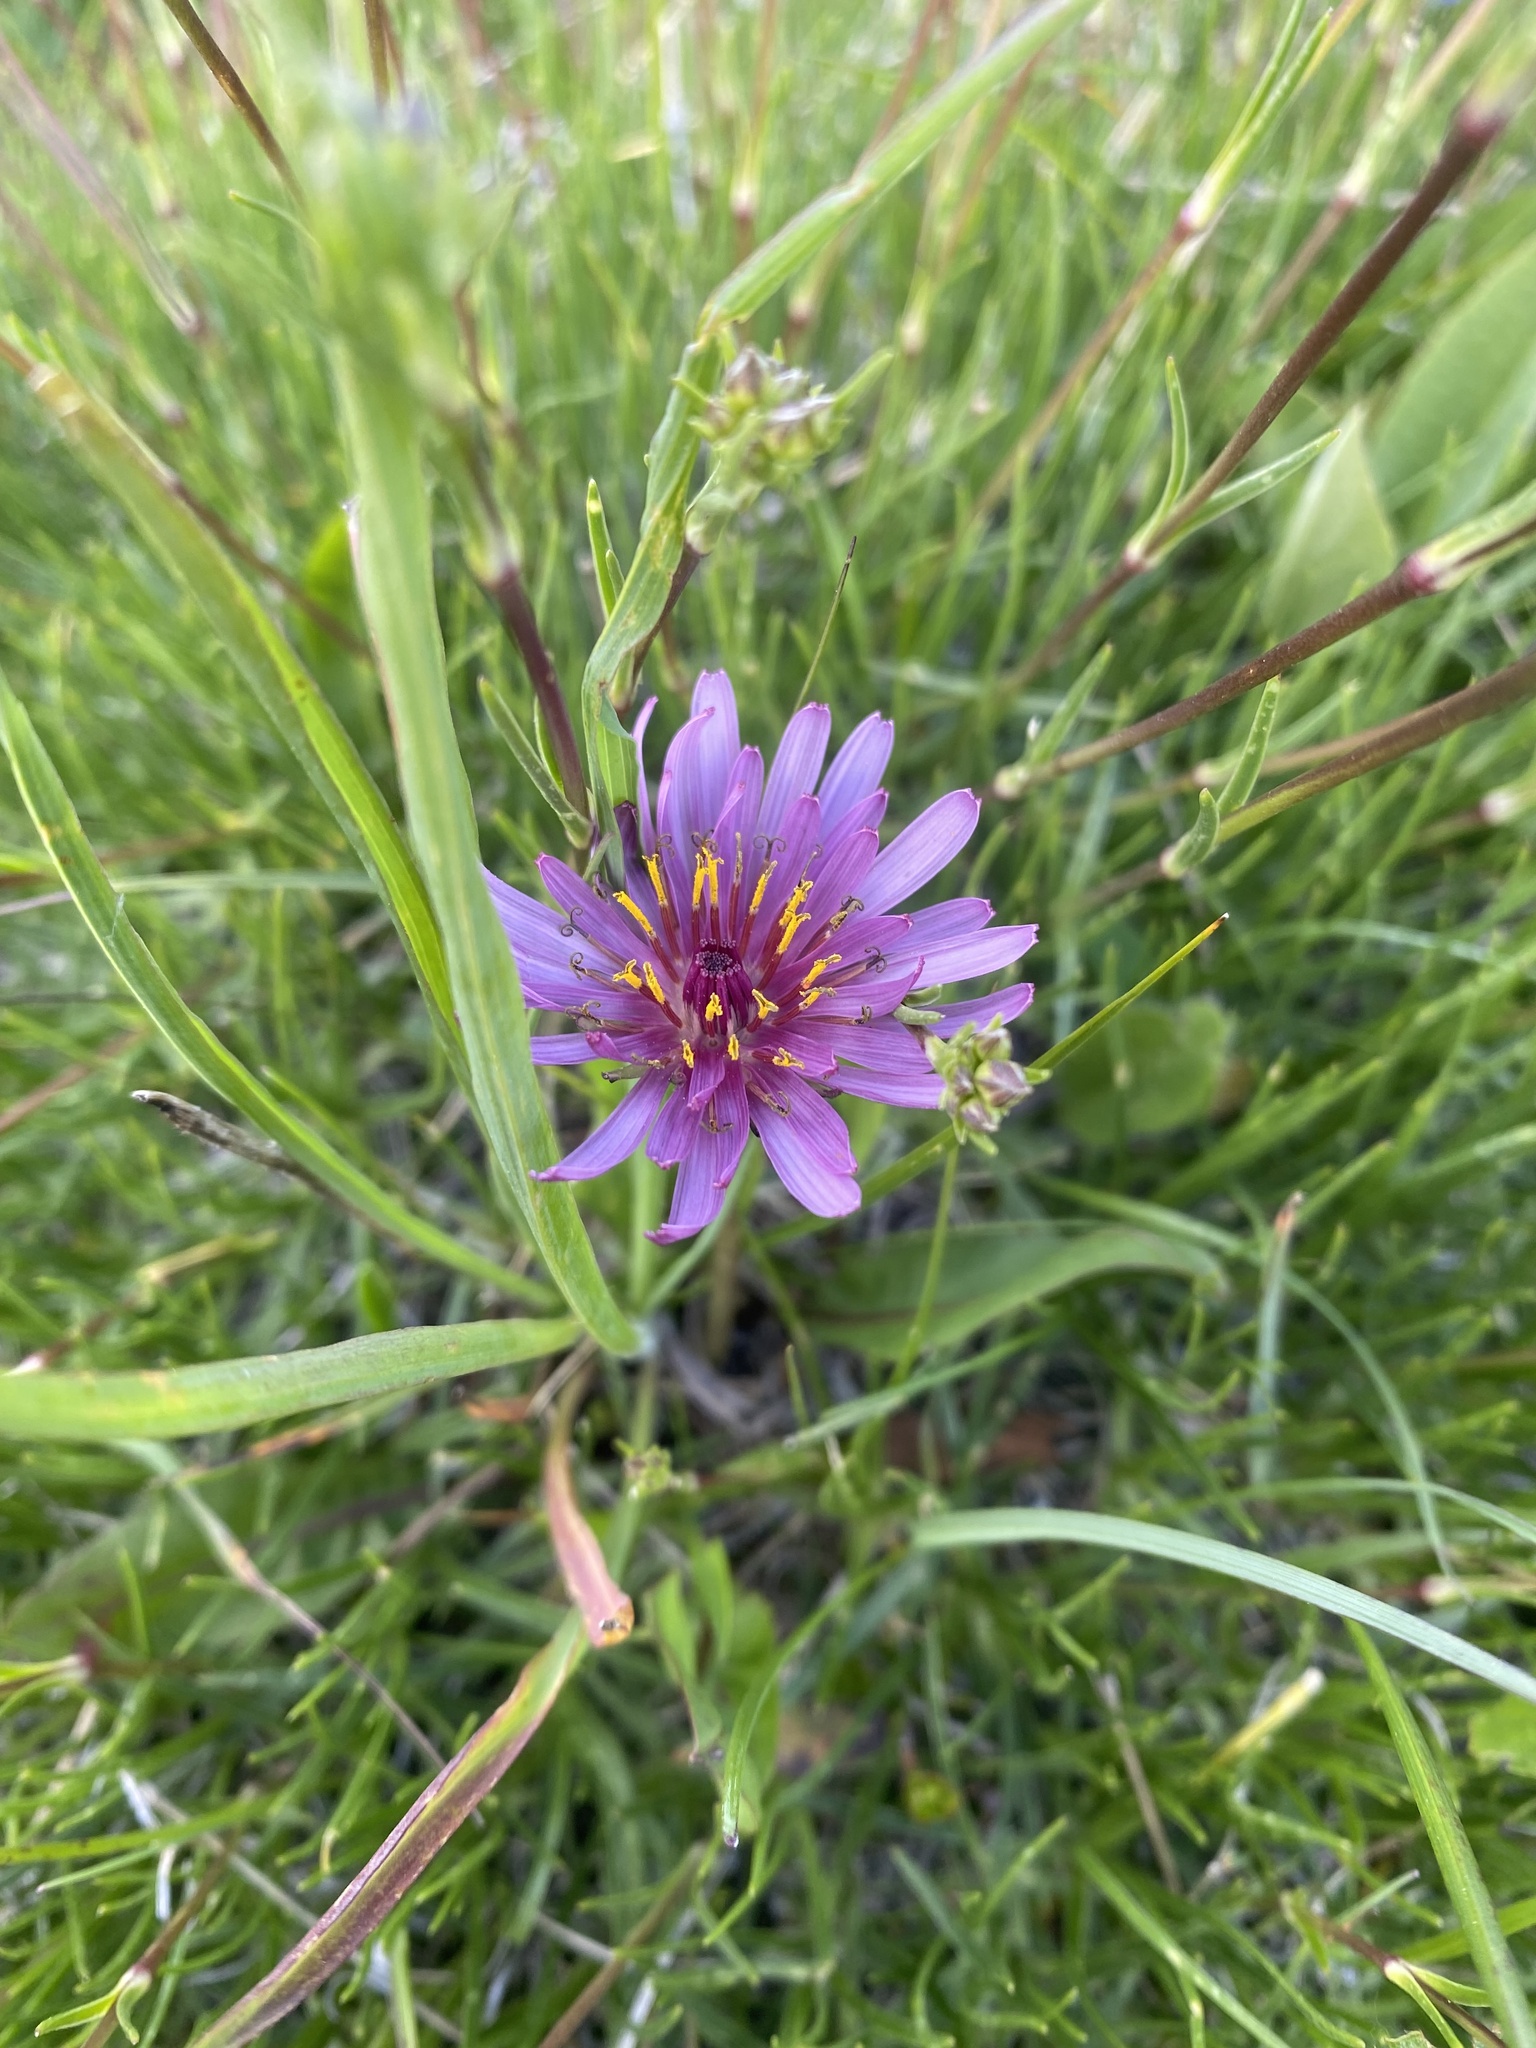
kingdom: Plantae
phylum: Tracheophyta
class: Magnoliopsida
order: Asterales
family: Asteraceae
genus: Taraxacum
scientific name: Taraxacum porphyranthum
